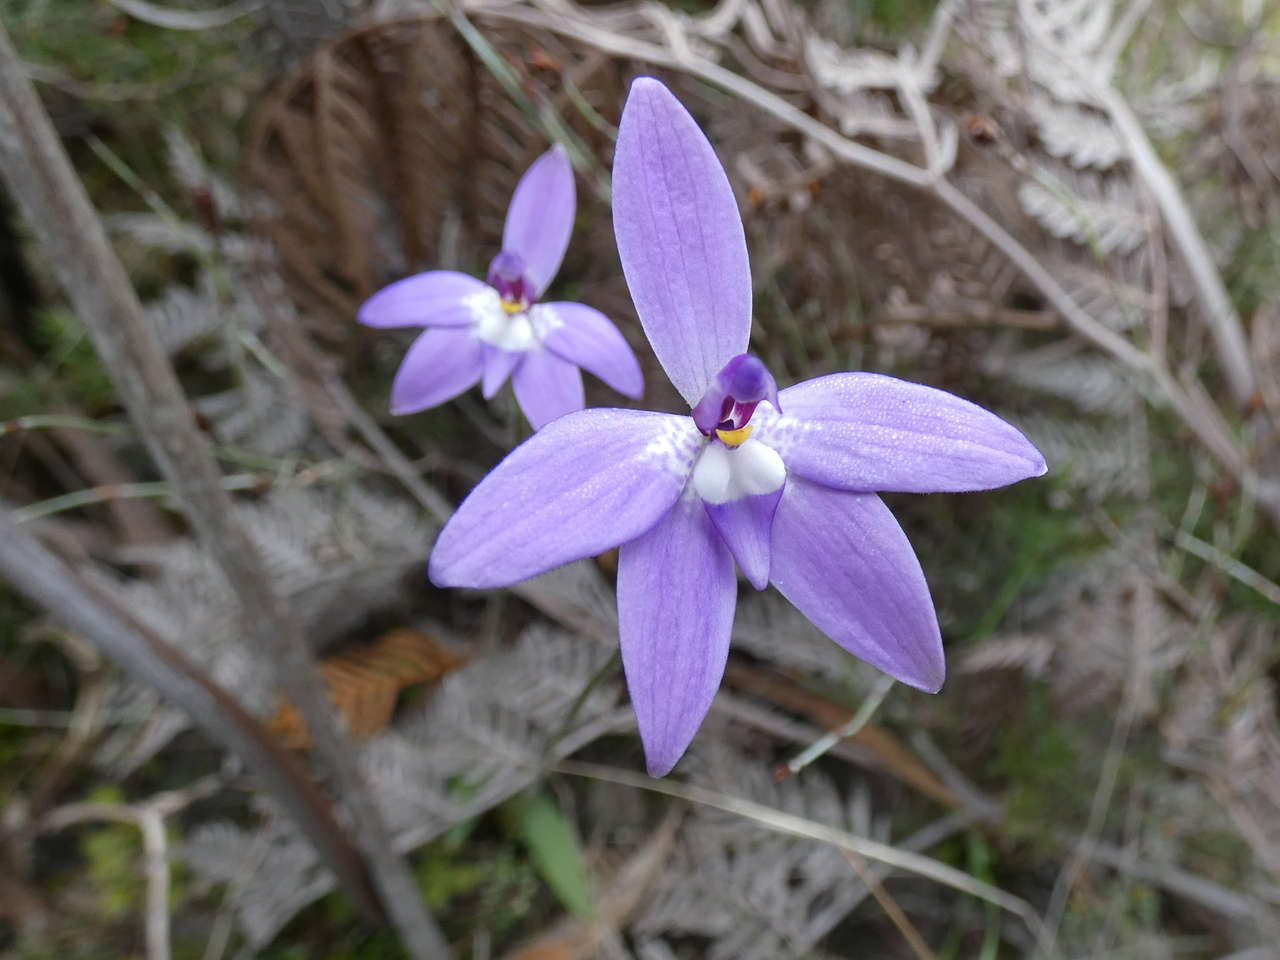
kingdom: Plantae
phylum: Tracheophyta
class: Liliopsida
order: Asparagales
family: Orchidaceae
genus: Caladenia
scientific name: Caladenia major
